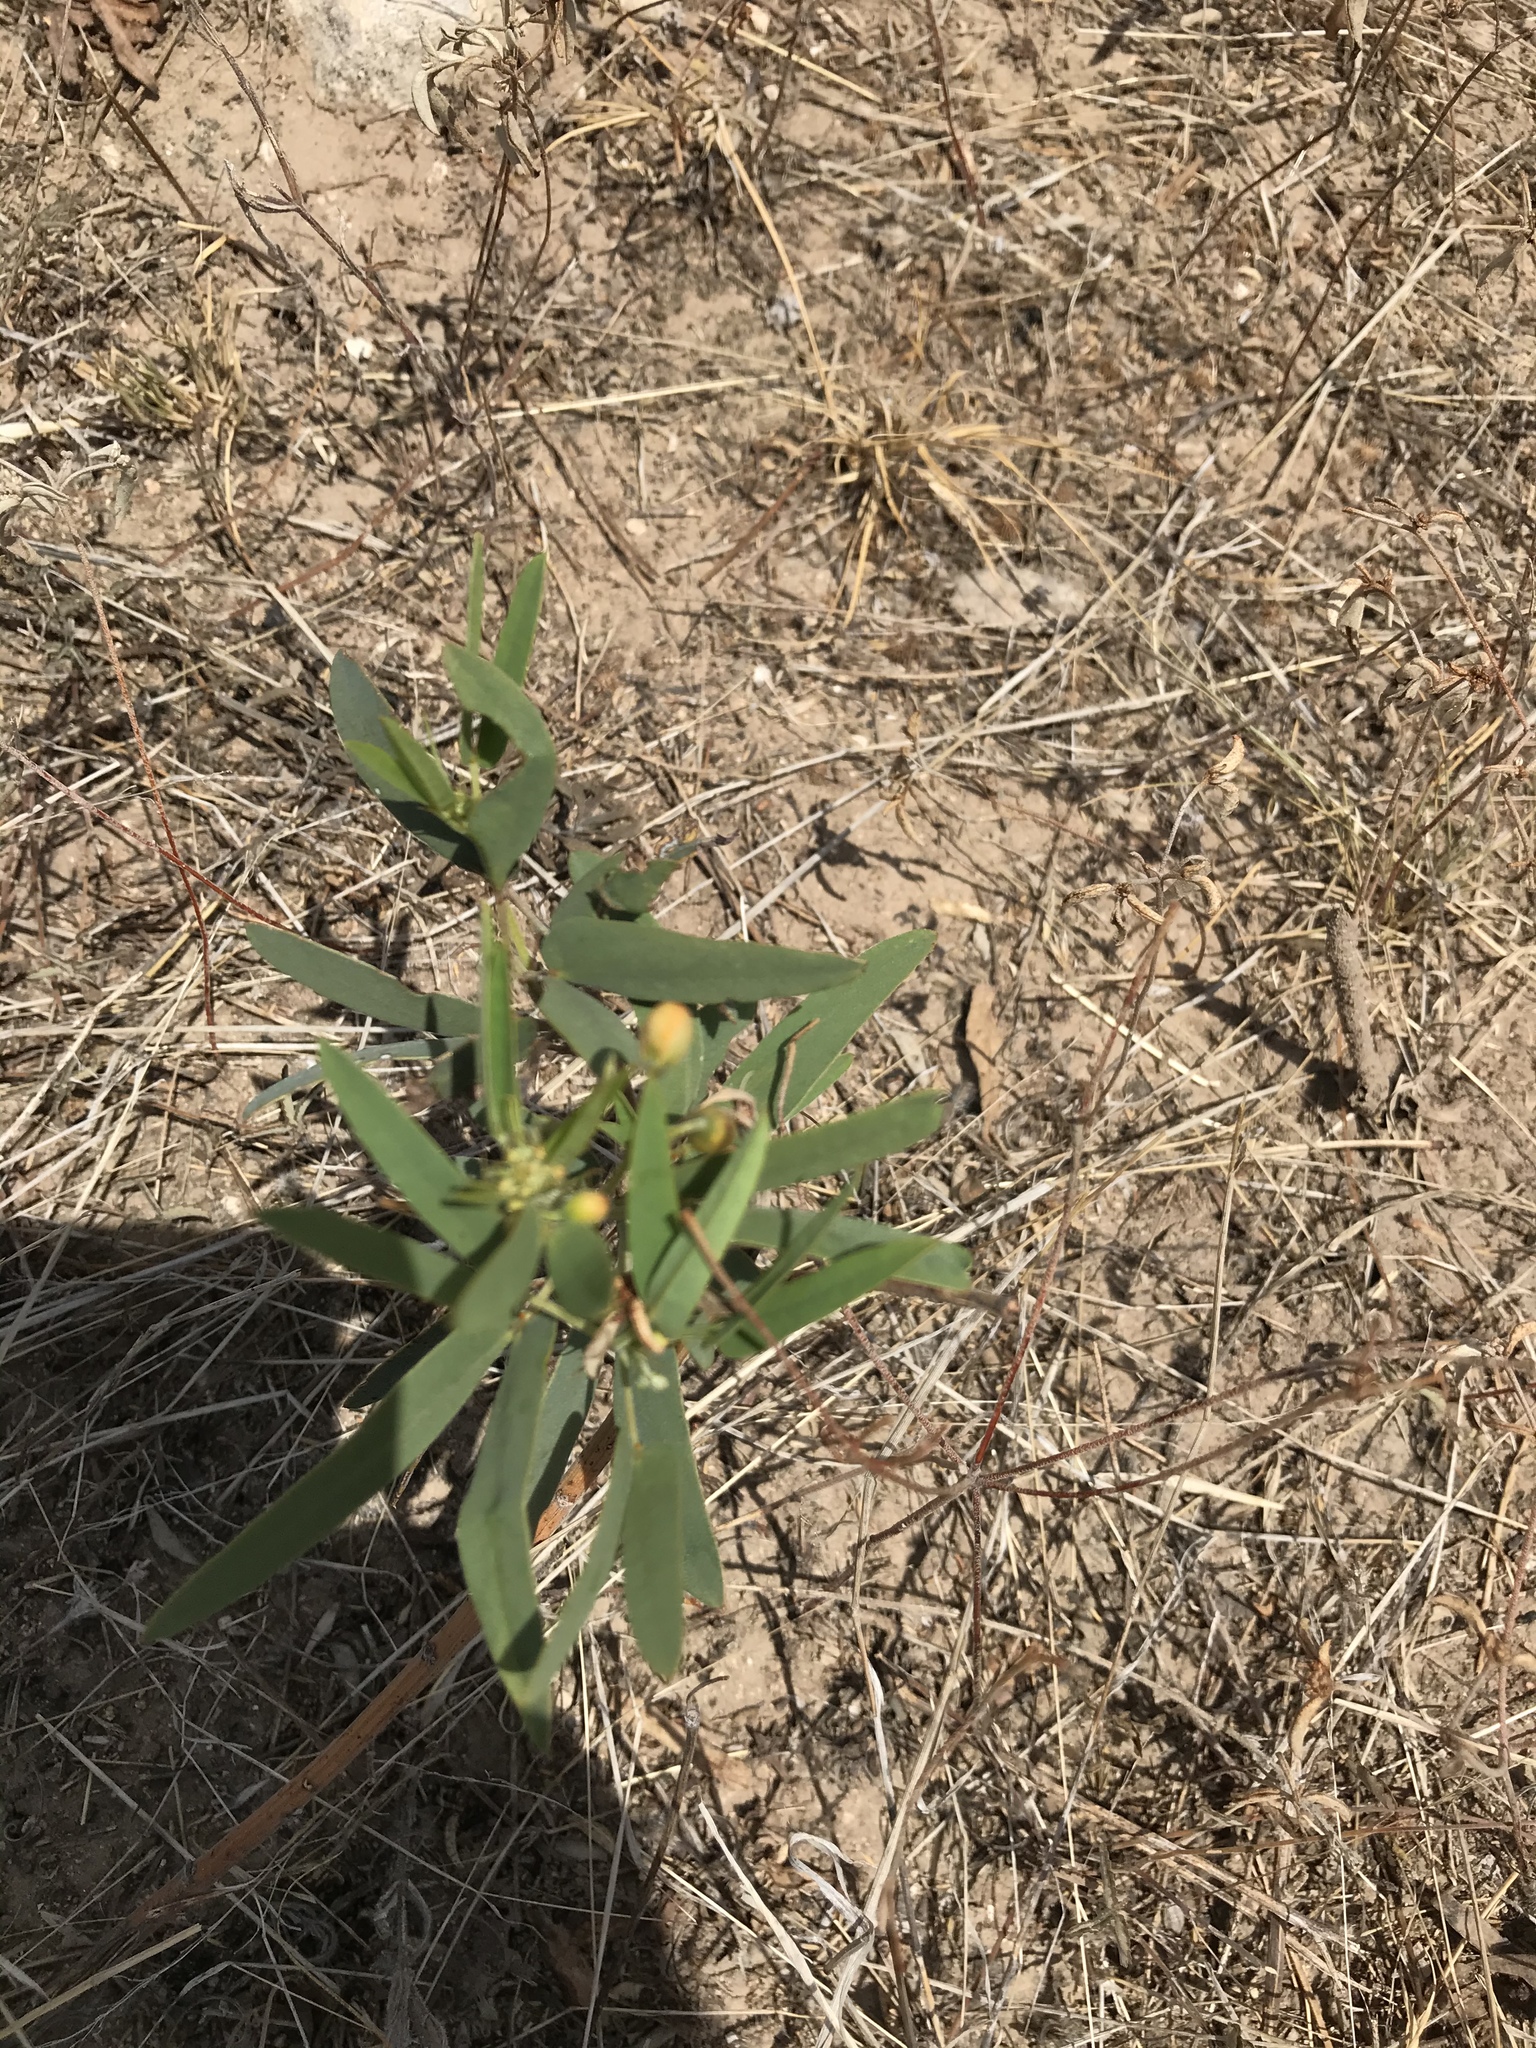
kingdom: Plantae
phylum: Tracheophyta
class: Magnoliopsida
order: Fabales
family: Fabaceae
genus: Senna
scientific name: Senna roemeriana
